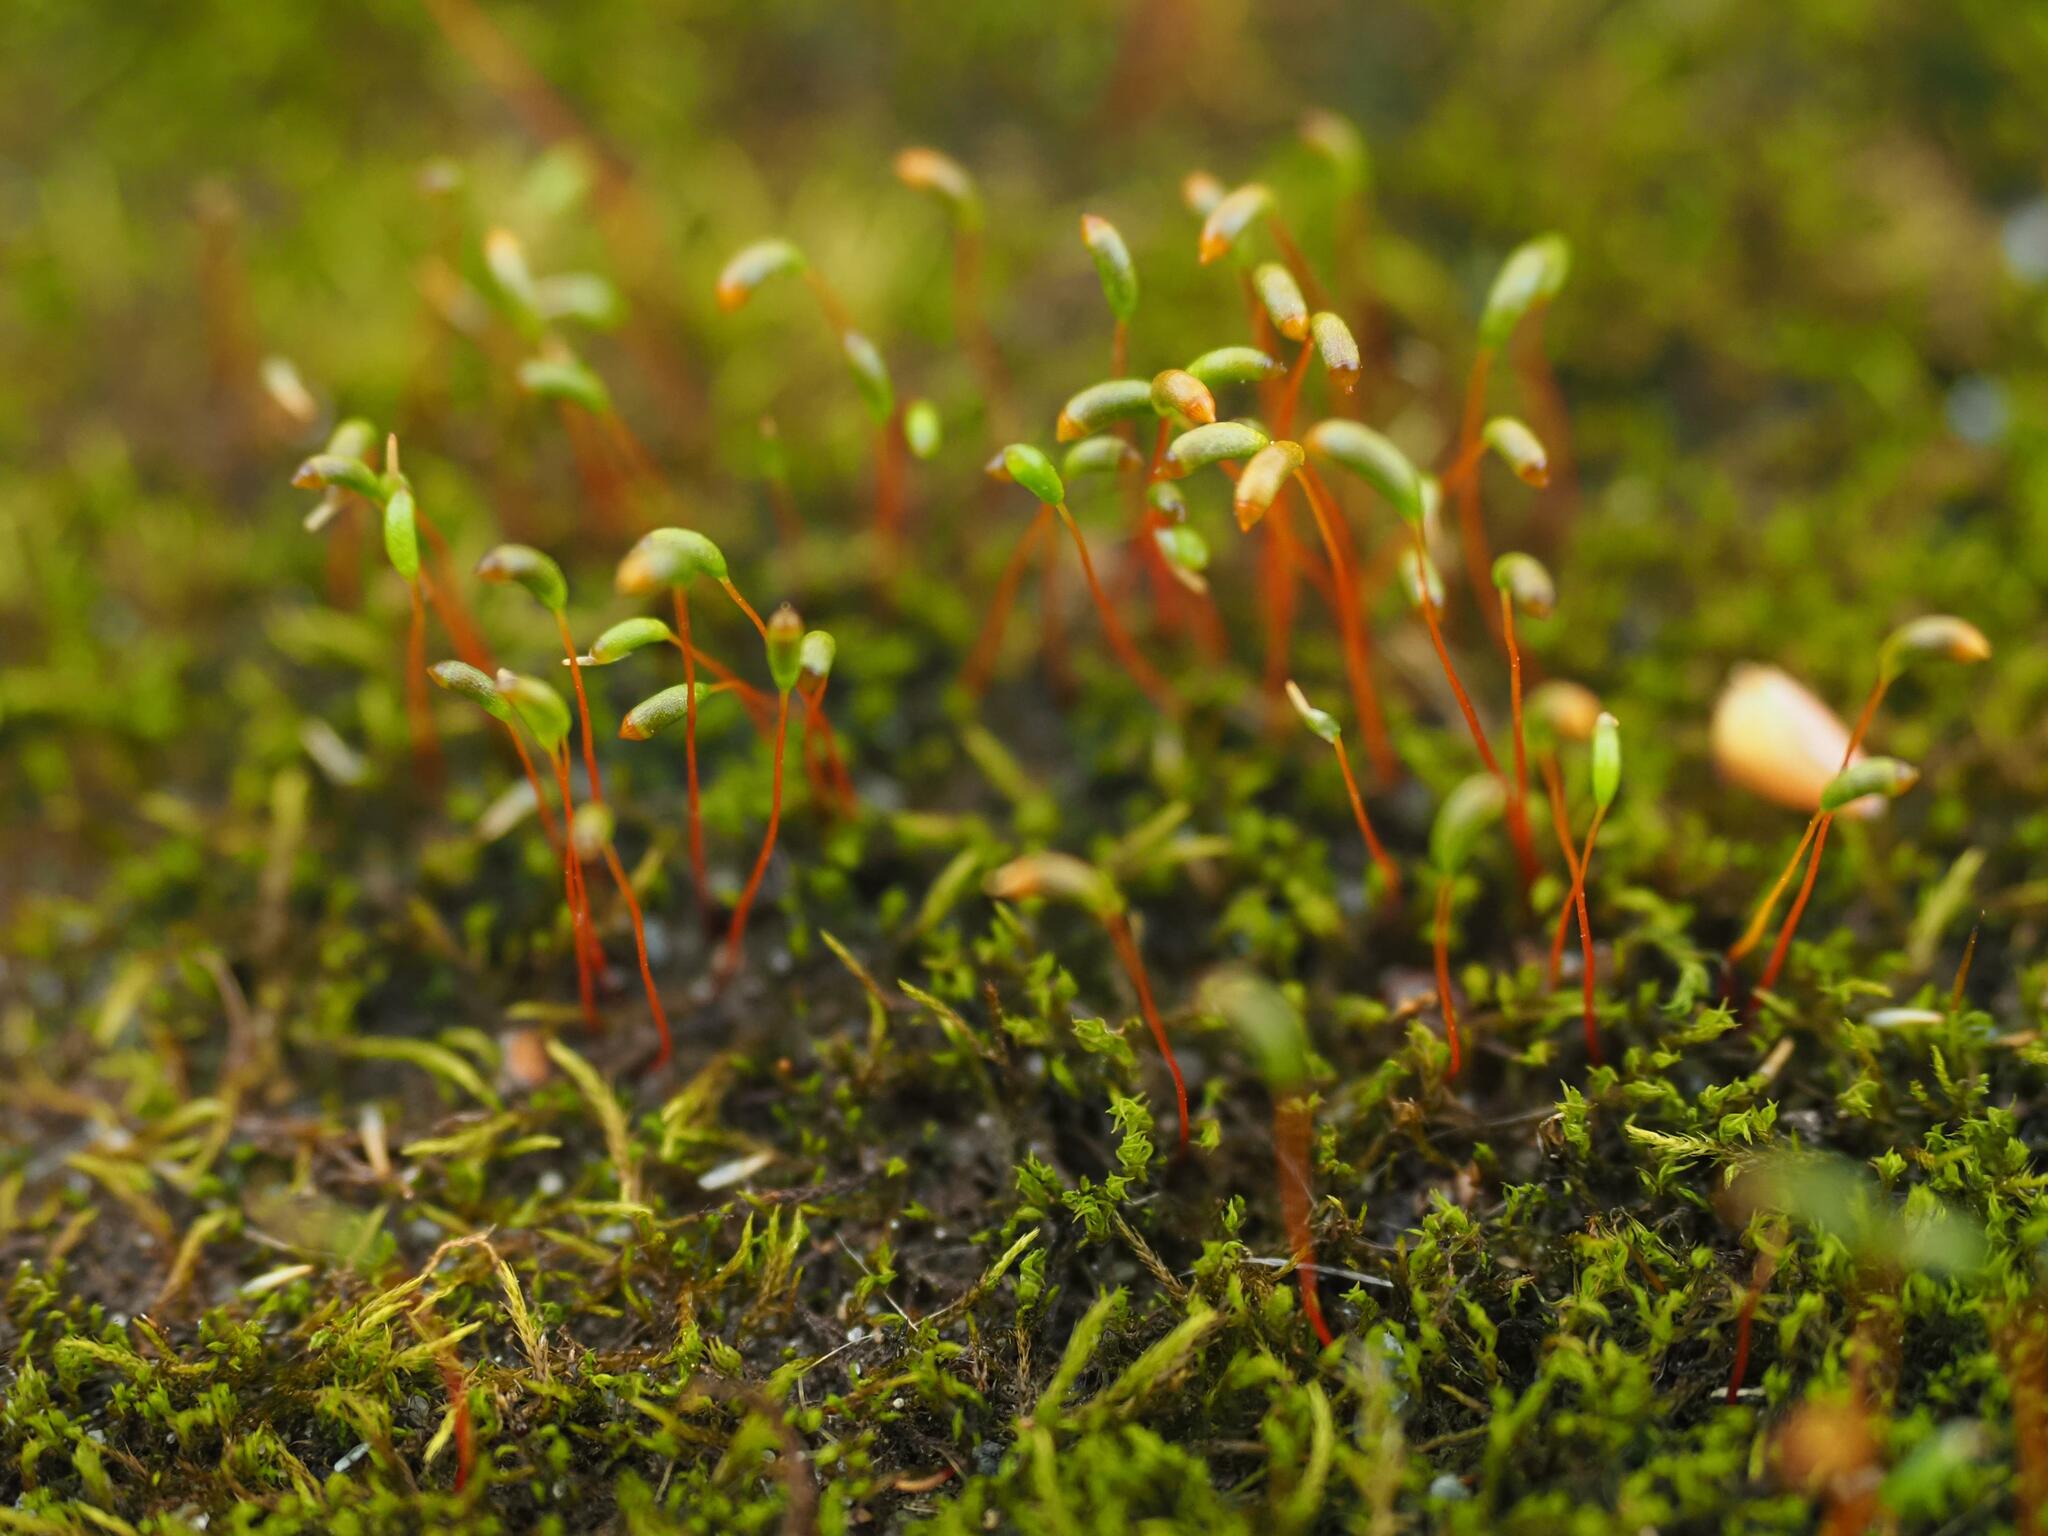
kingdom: Plantae
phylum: Bryophyta
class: Bryopsida
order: Hypnales
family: Amblystegiaceae
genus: Amblystegium
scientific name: Amblystegium serpens
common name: Jurkatzka's feather moss
